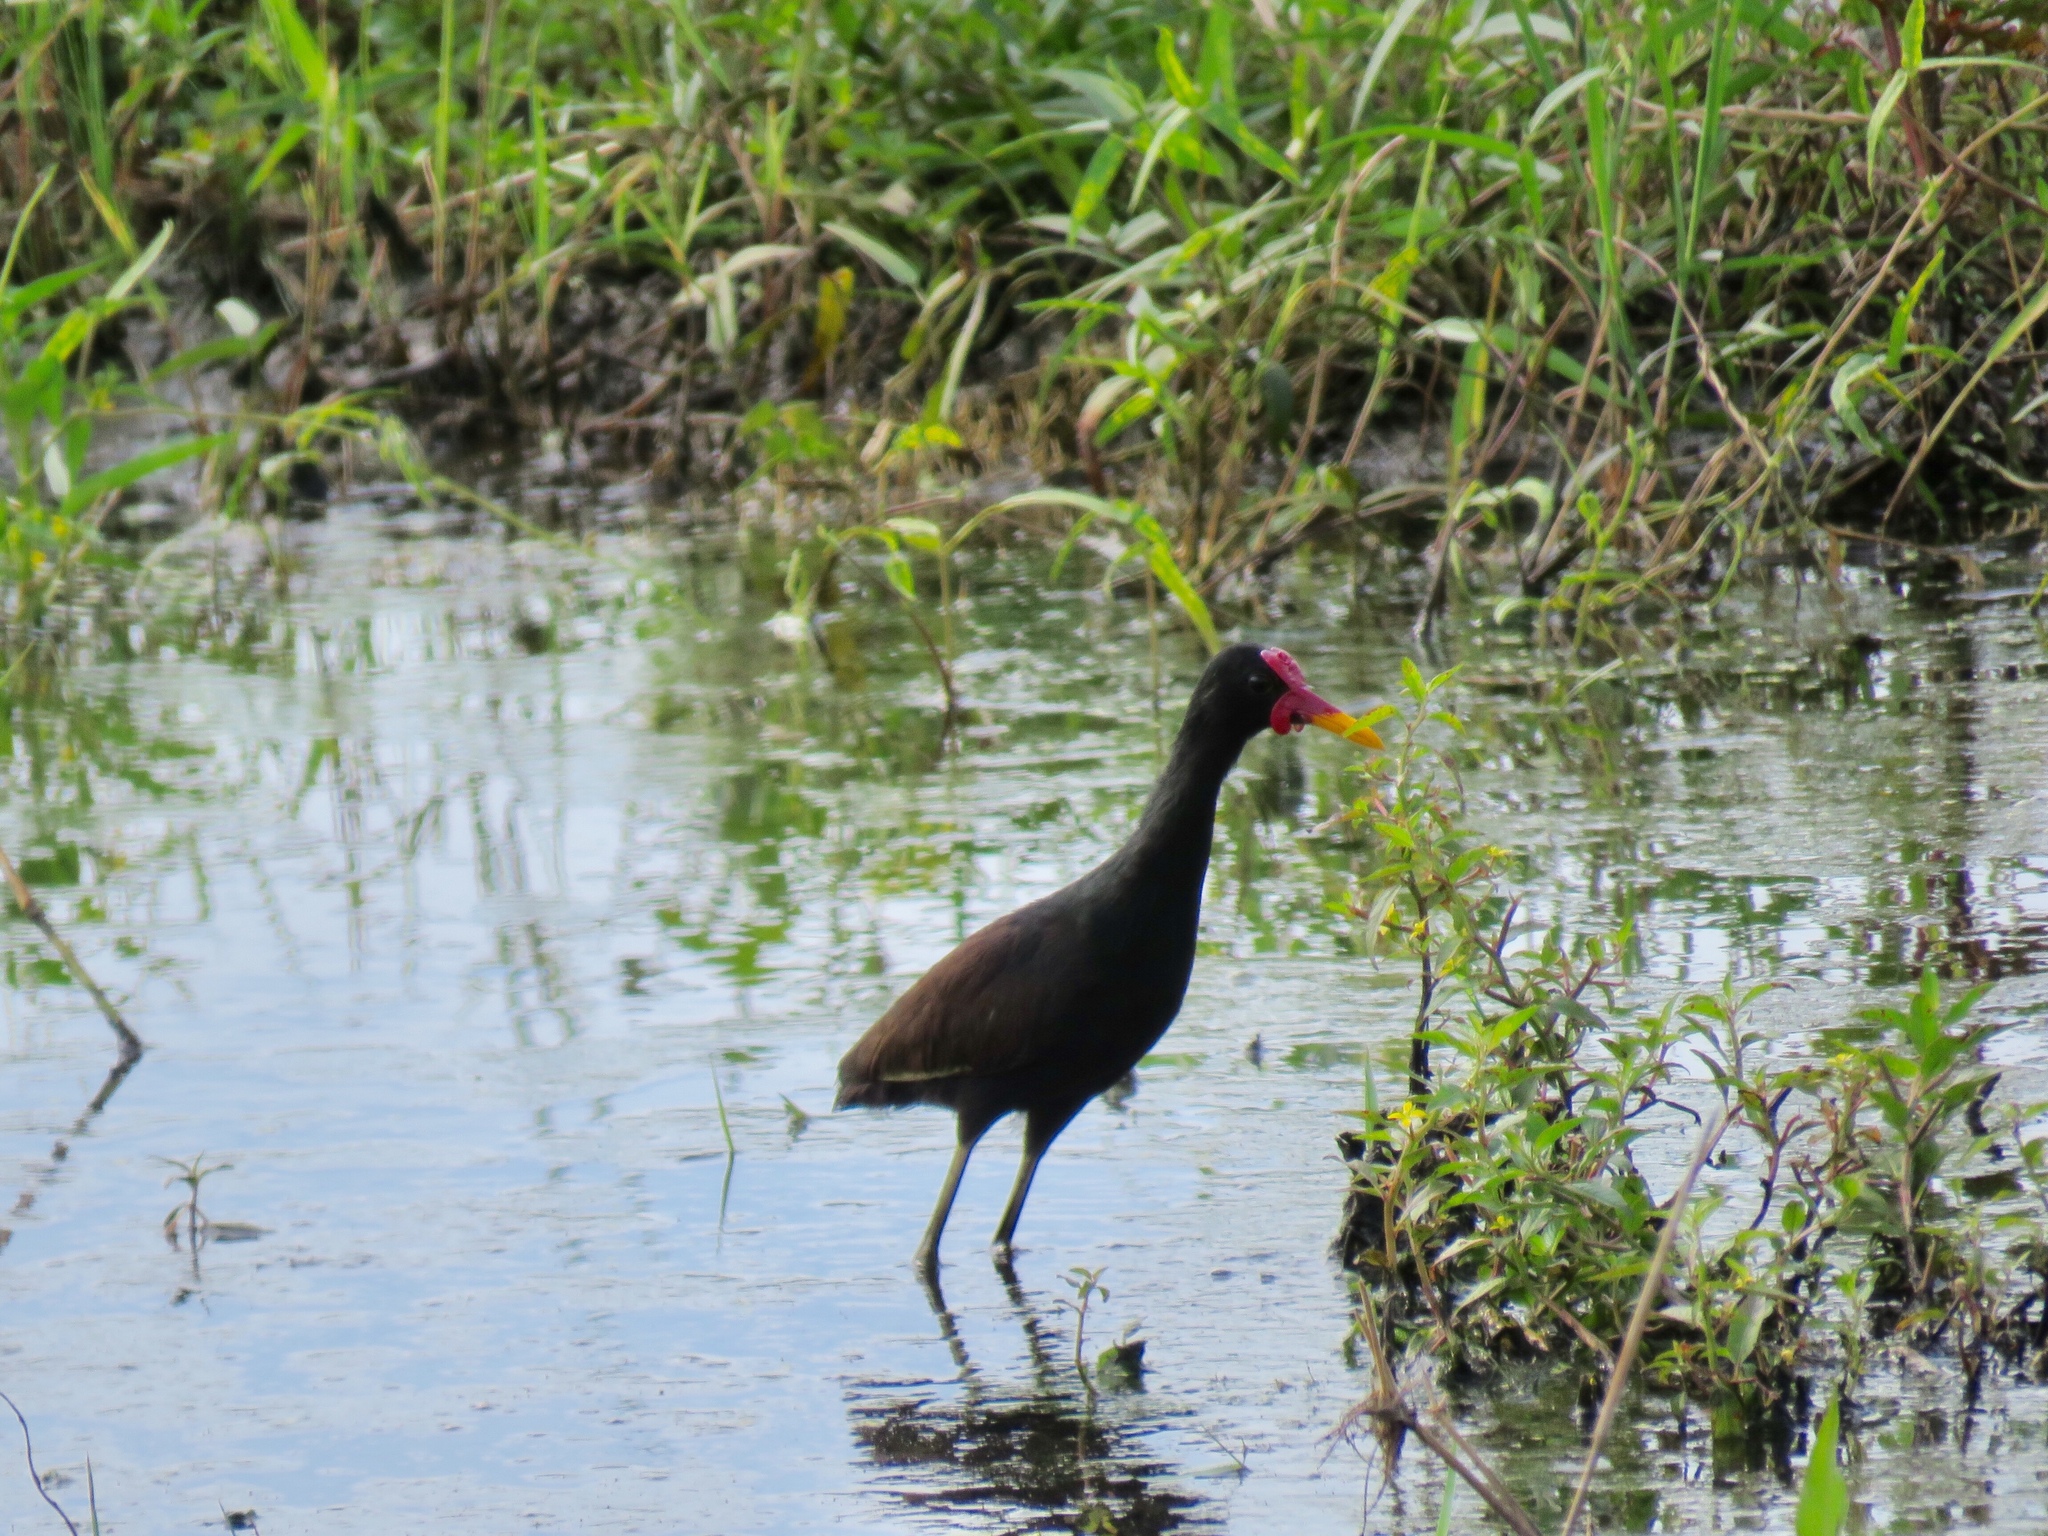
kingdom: Animalia
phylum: Chordata
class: Aves
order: Charadriiformes
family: Jacanidae
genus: Jacana
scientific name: Jacana jacana
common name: Wattled jacana
